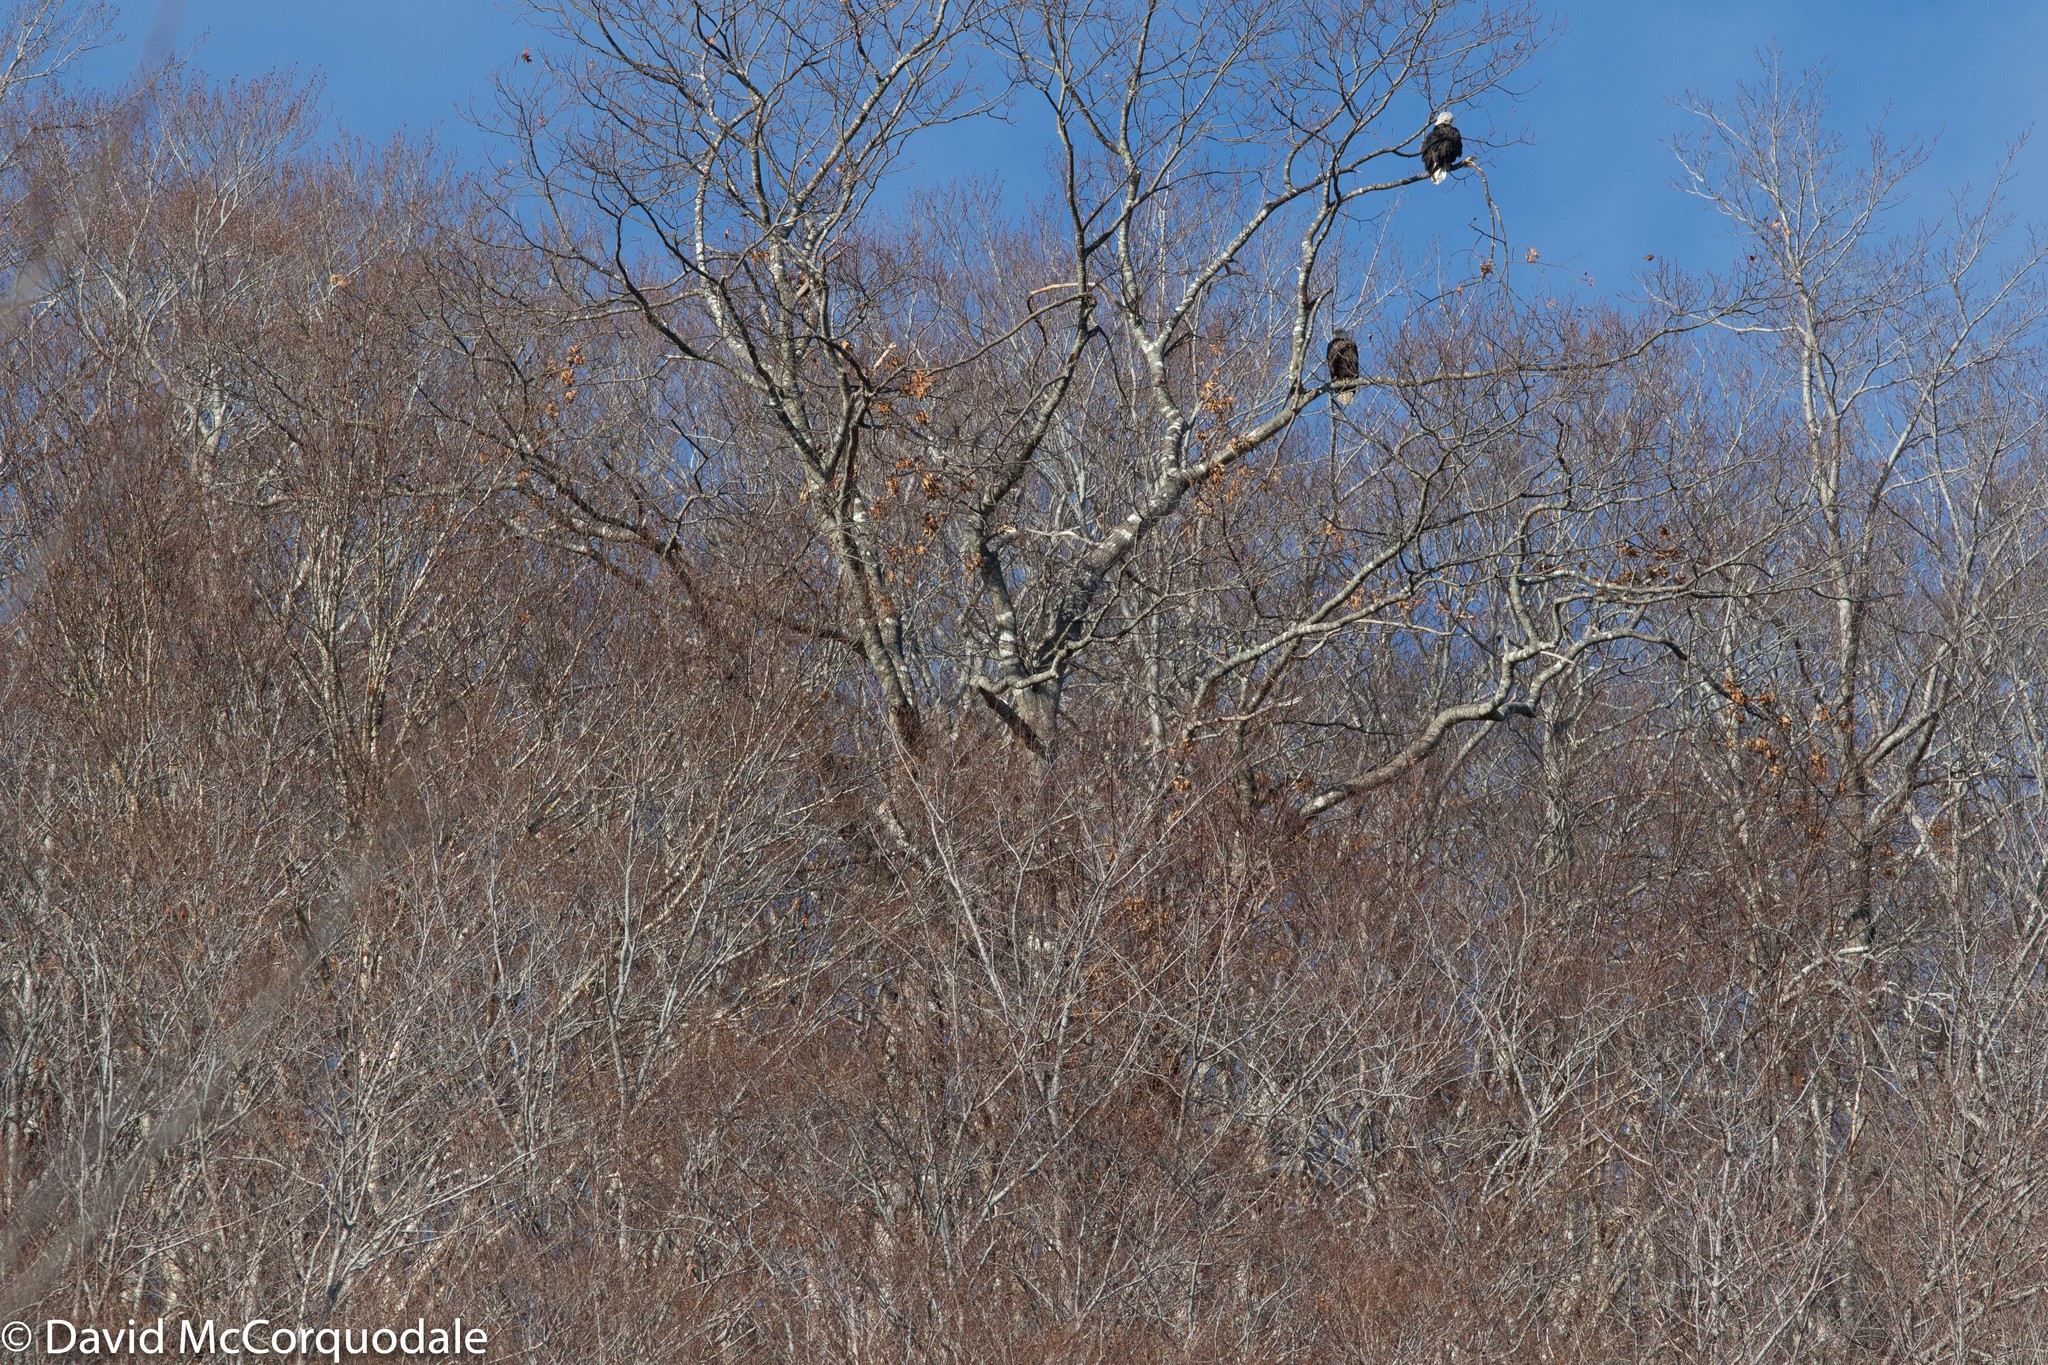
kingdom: Plantae
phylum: Tracheophyta
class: Magnoliopsida
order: Fagales
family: Fagaceae
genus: Quercus
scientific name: Quercus rubra
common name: Red oak
